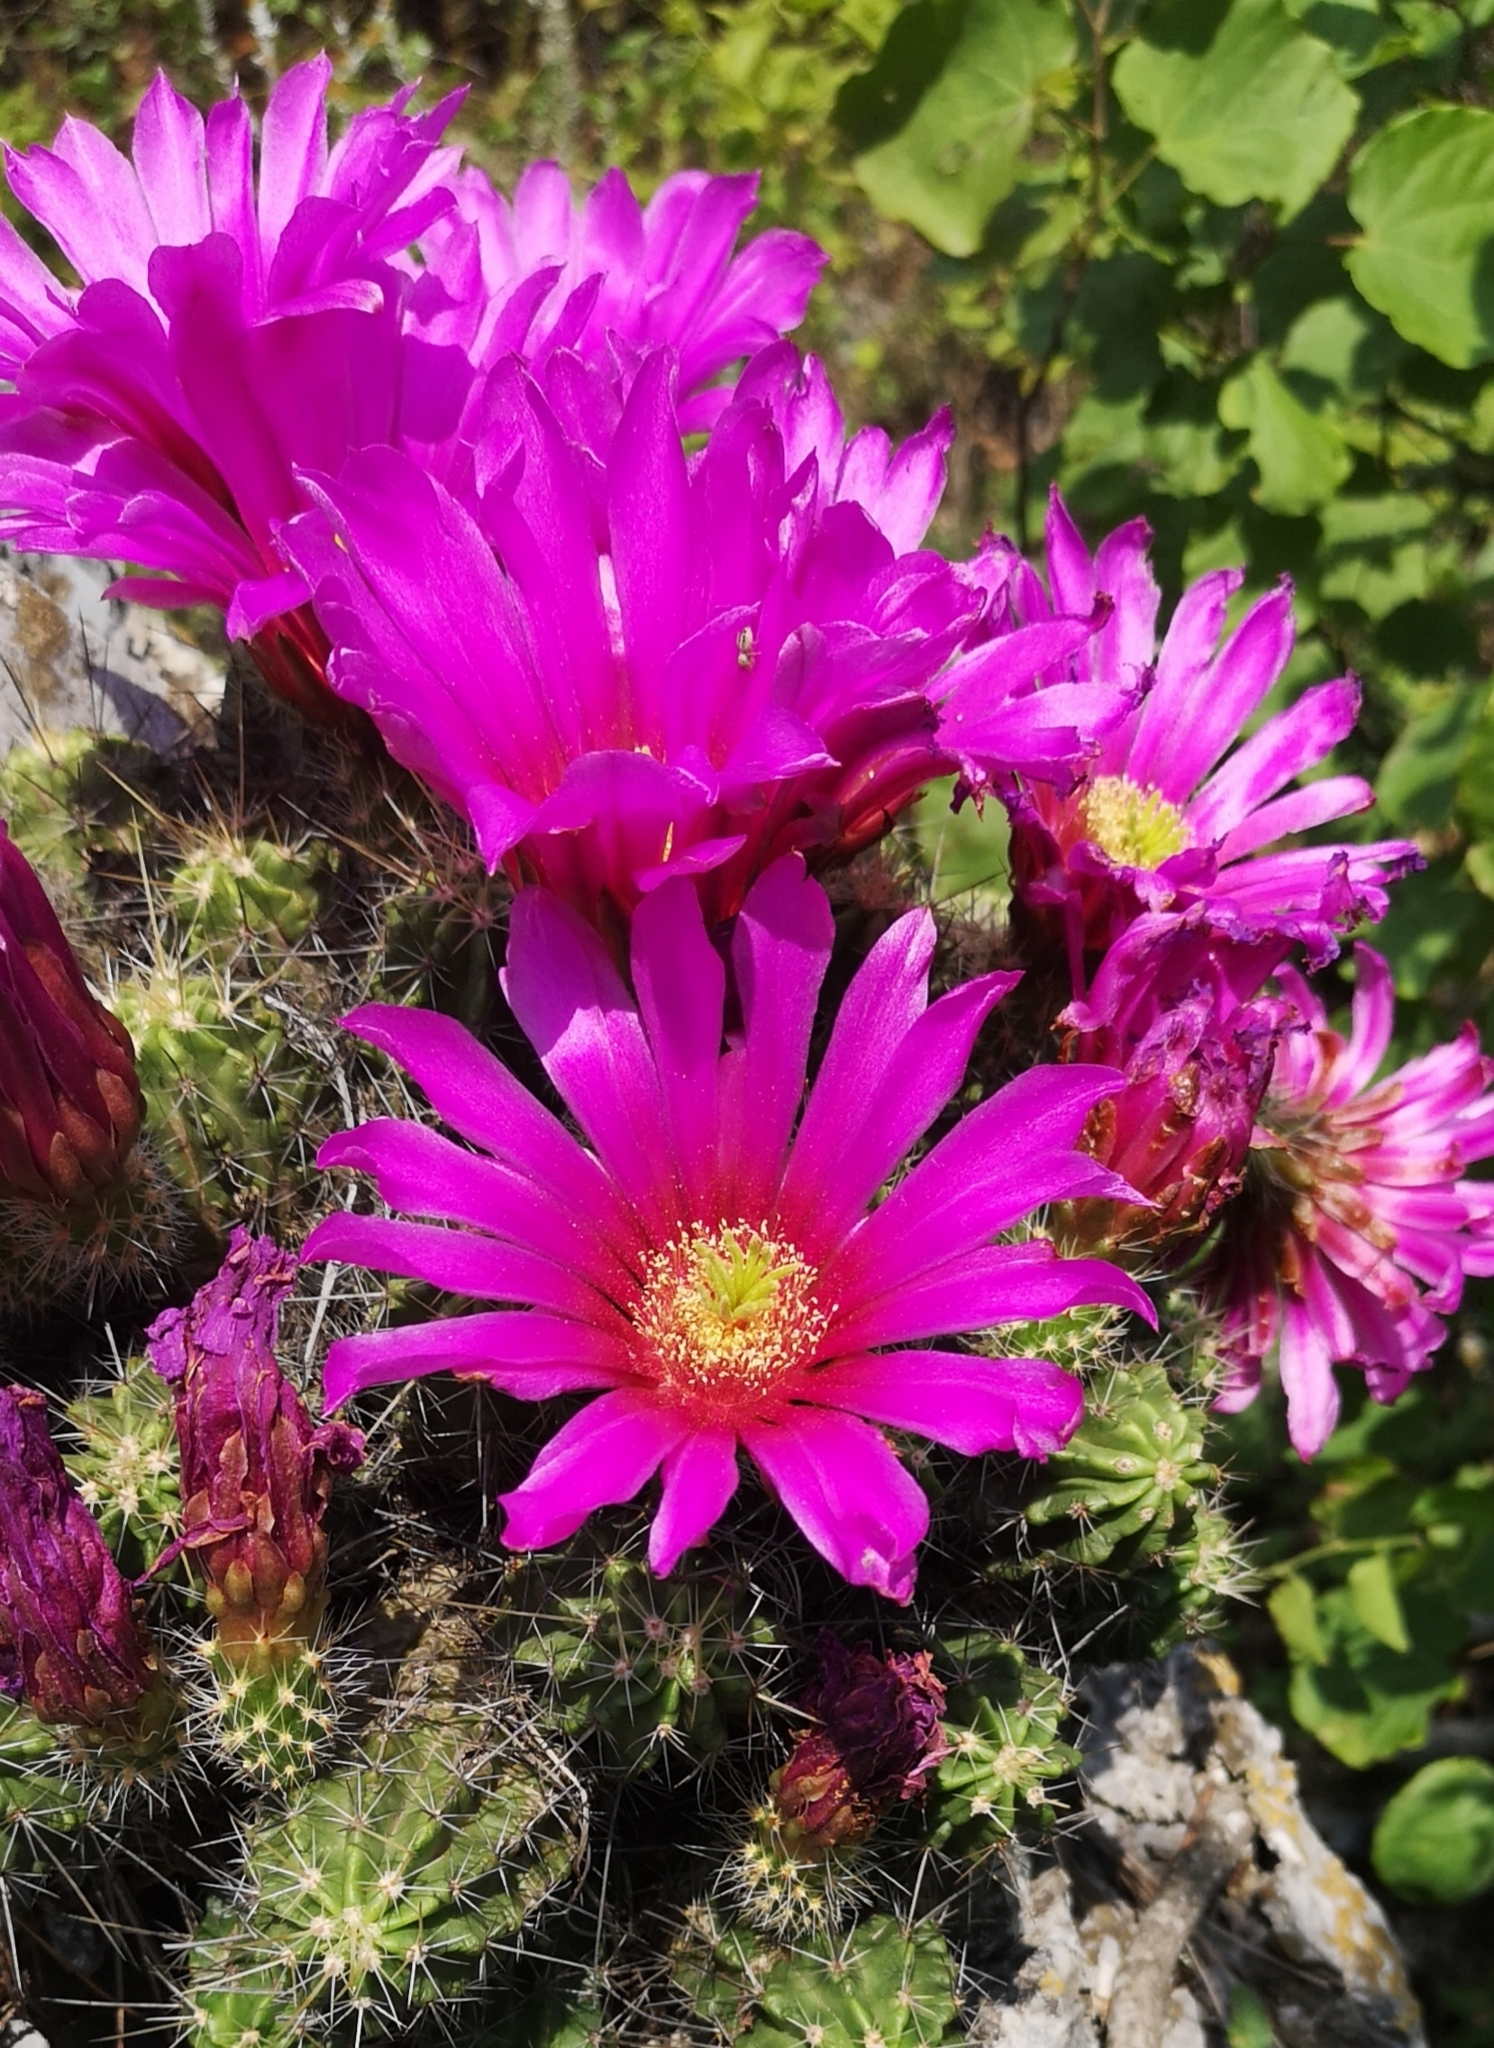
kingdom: Plantae
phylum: Tracheophyta
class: Magnoliopsida
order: Caryophyllales
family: Cactaceae
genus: Echinocereus
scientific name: Echinocereus viereckii
